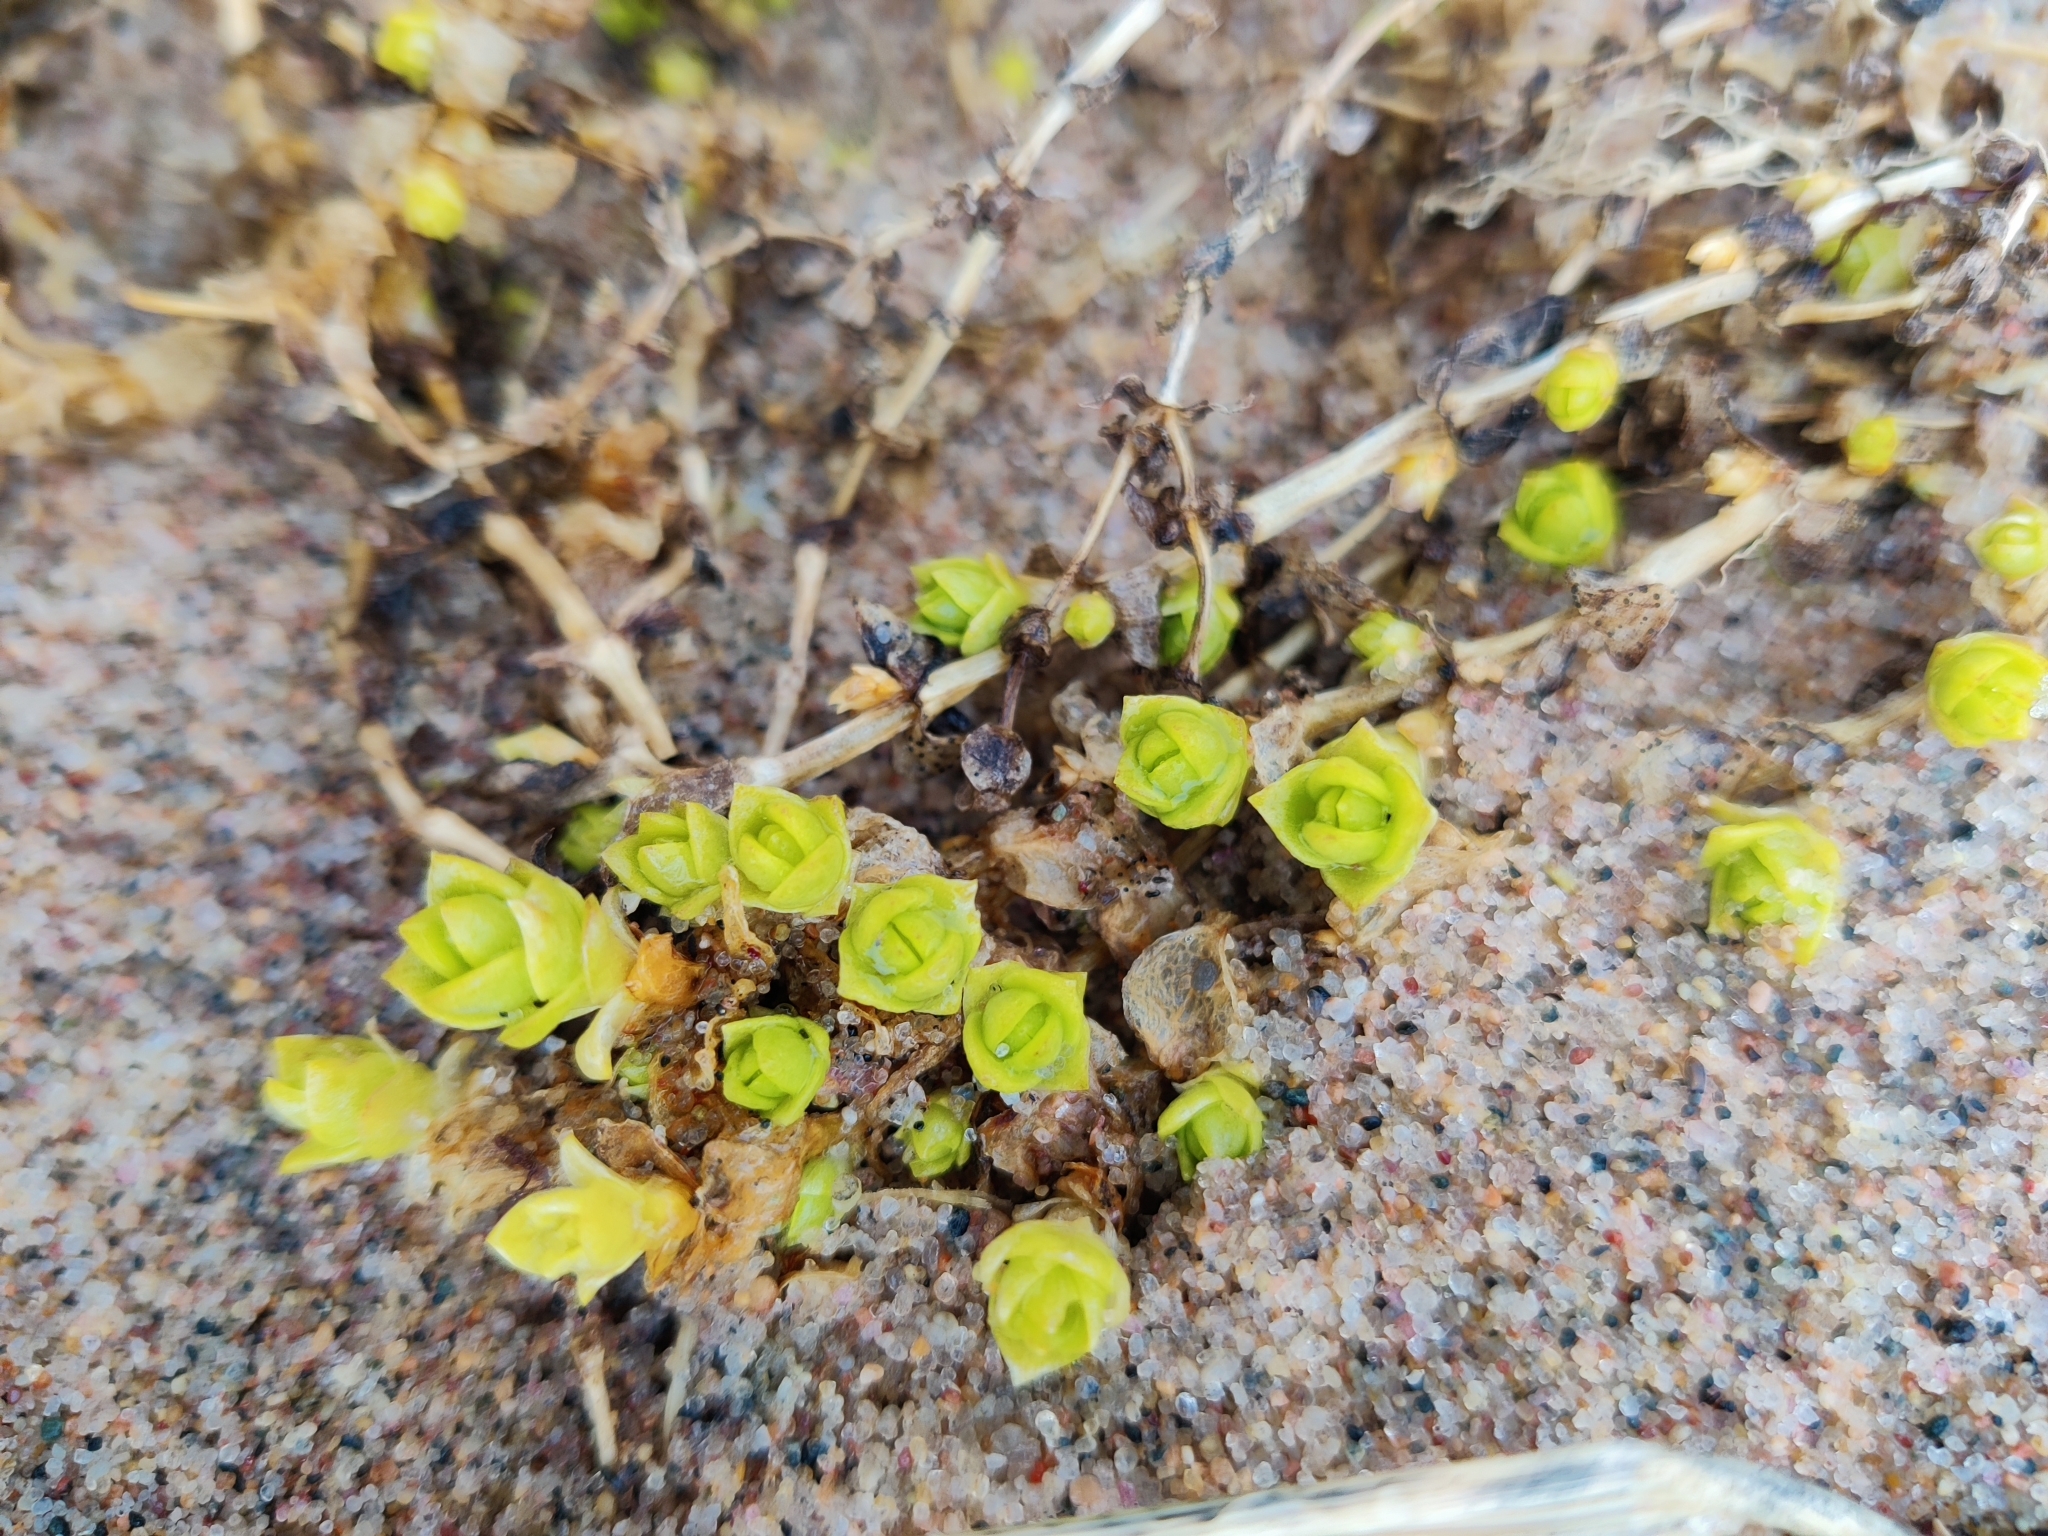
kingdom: Plantae
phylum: Tracheophyta
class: Magnoliopsida
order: Caryophyllales
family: Caryophyllaceae
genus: Honckenya
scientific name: Honckenya peploides
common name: Sea sandwort
